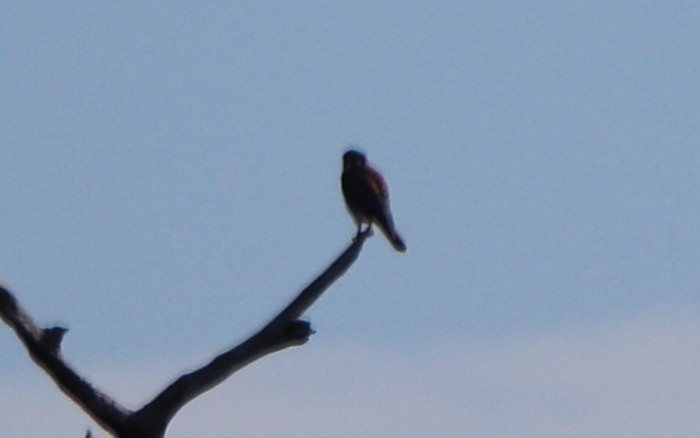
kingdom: Animalia
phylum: Chordata
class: Aves
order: Falconiformes
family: Falconidae
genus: Falco
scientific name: Falco sparverius
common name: American kestrel
